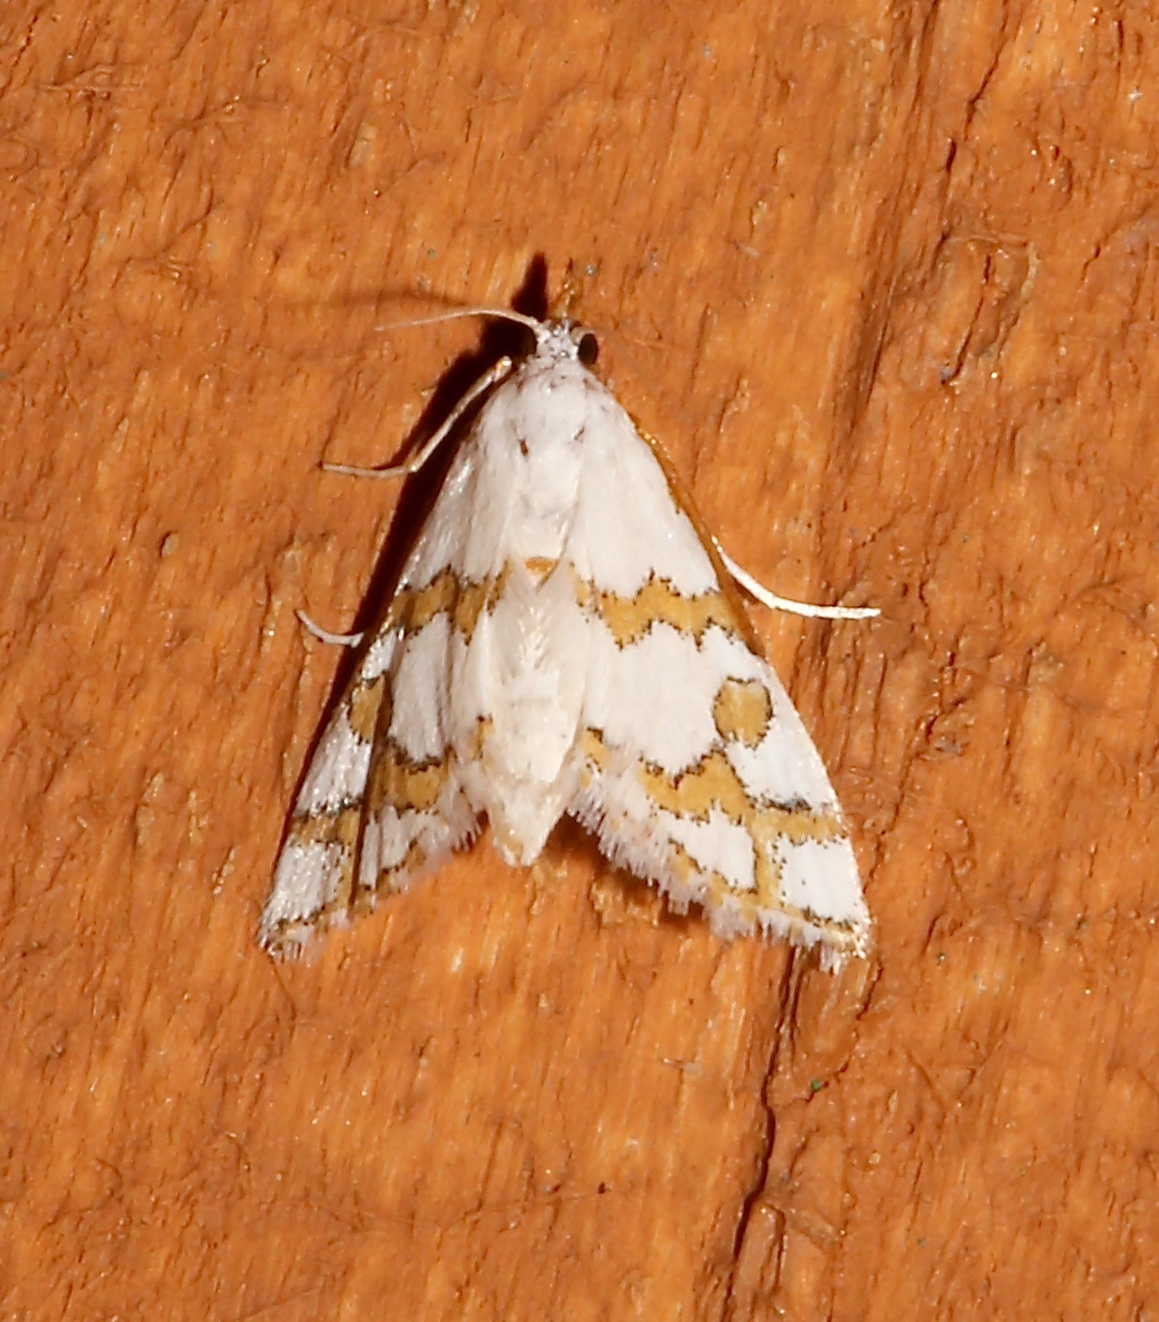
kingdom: Animalia
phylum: Arthropoda
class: Insecta
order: Lepidoptera
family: Crambidae
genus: Leptosteges
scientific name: Leptosteges
